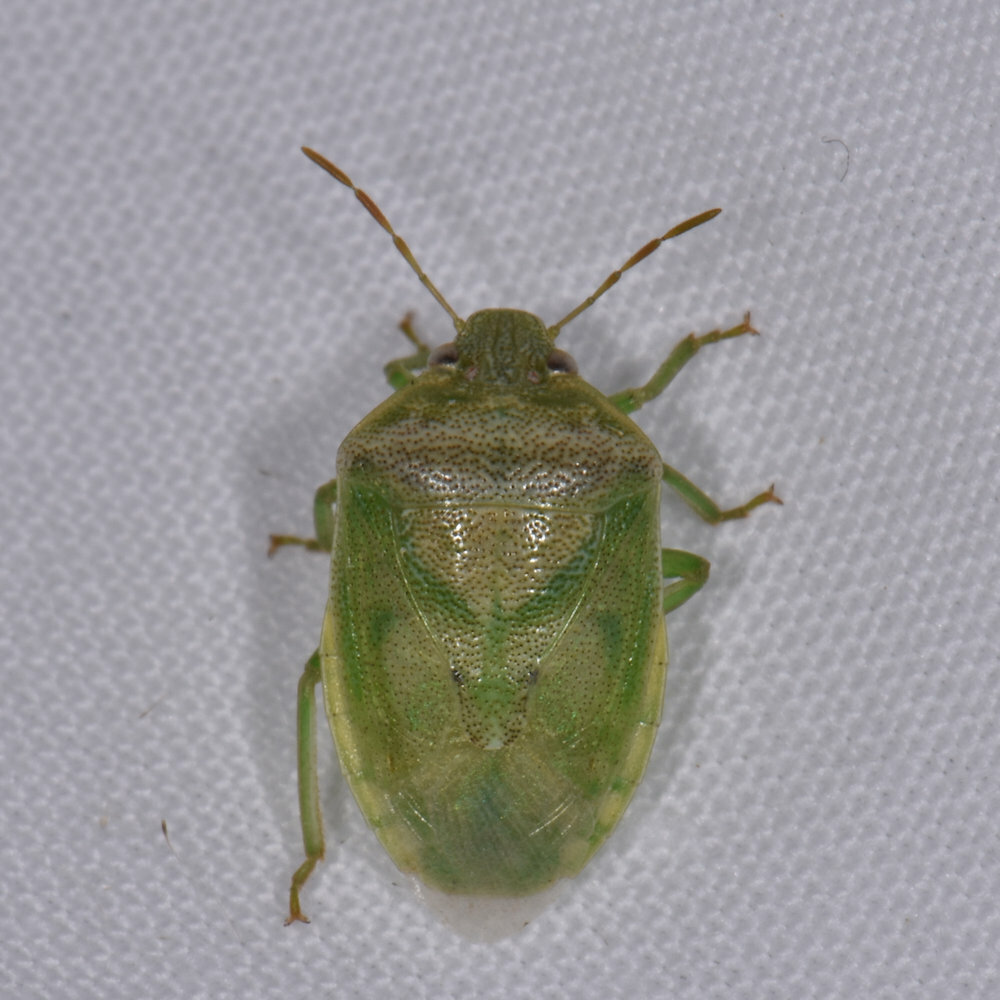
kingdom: Animalia
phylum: Arthropoda
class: Insecta
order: Hemiptera
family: Pentatomidae
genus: Piezodorus
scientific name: Piezodorus purus
